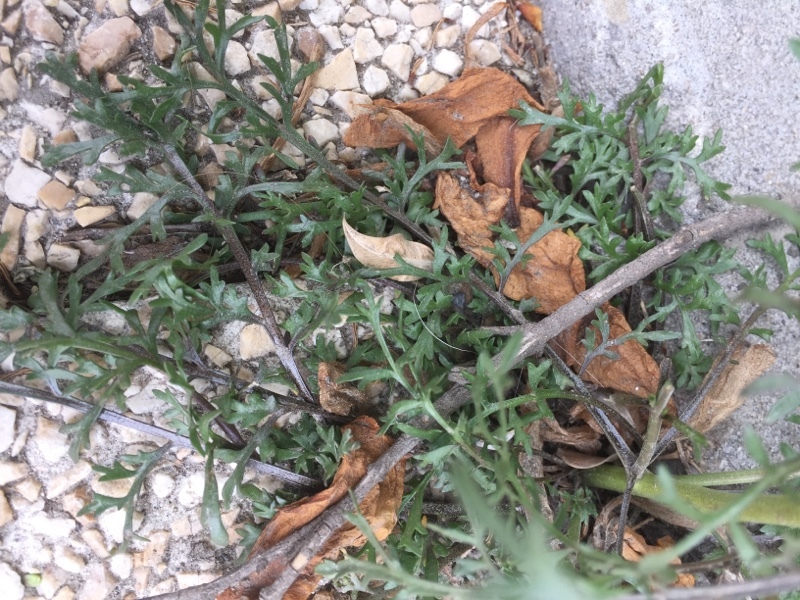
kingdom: Plantae
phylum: Tracheophyta
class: Magnoliopsida
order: Brassicales
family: Brassicaceae
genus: Lepidium
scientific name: Lepidium ruderale
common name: Narrow-leaved pepperwort
